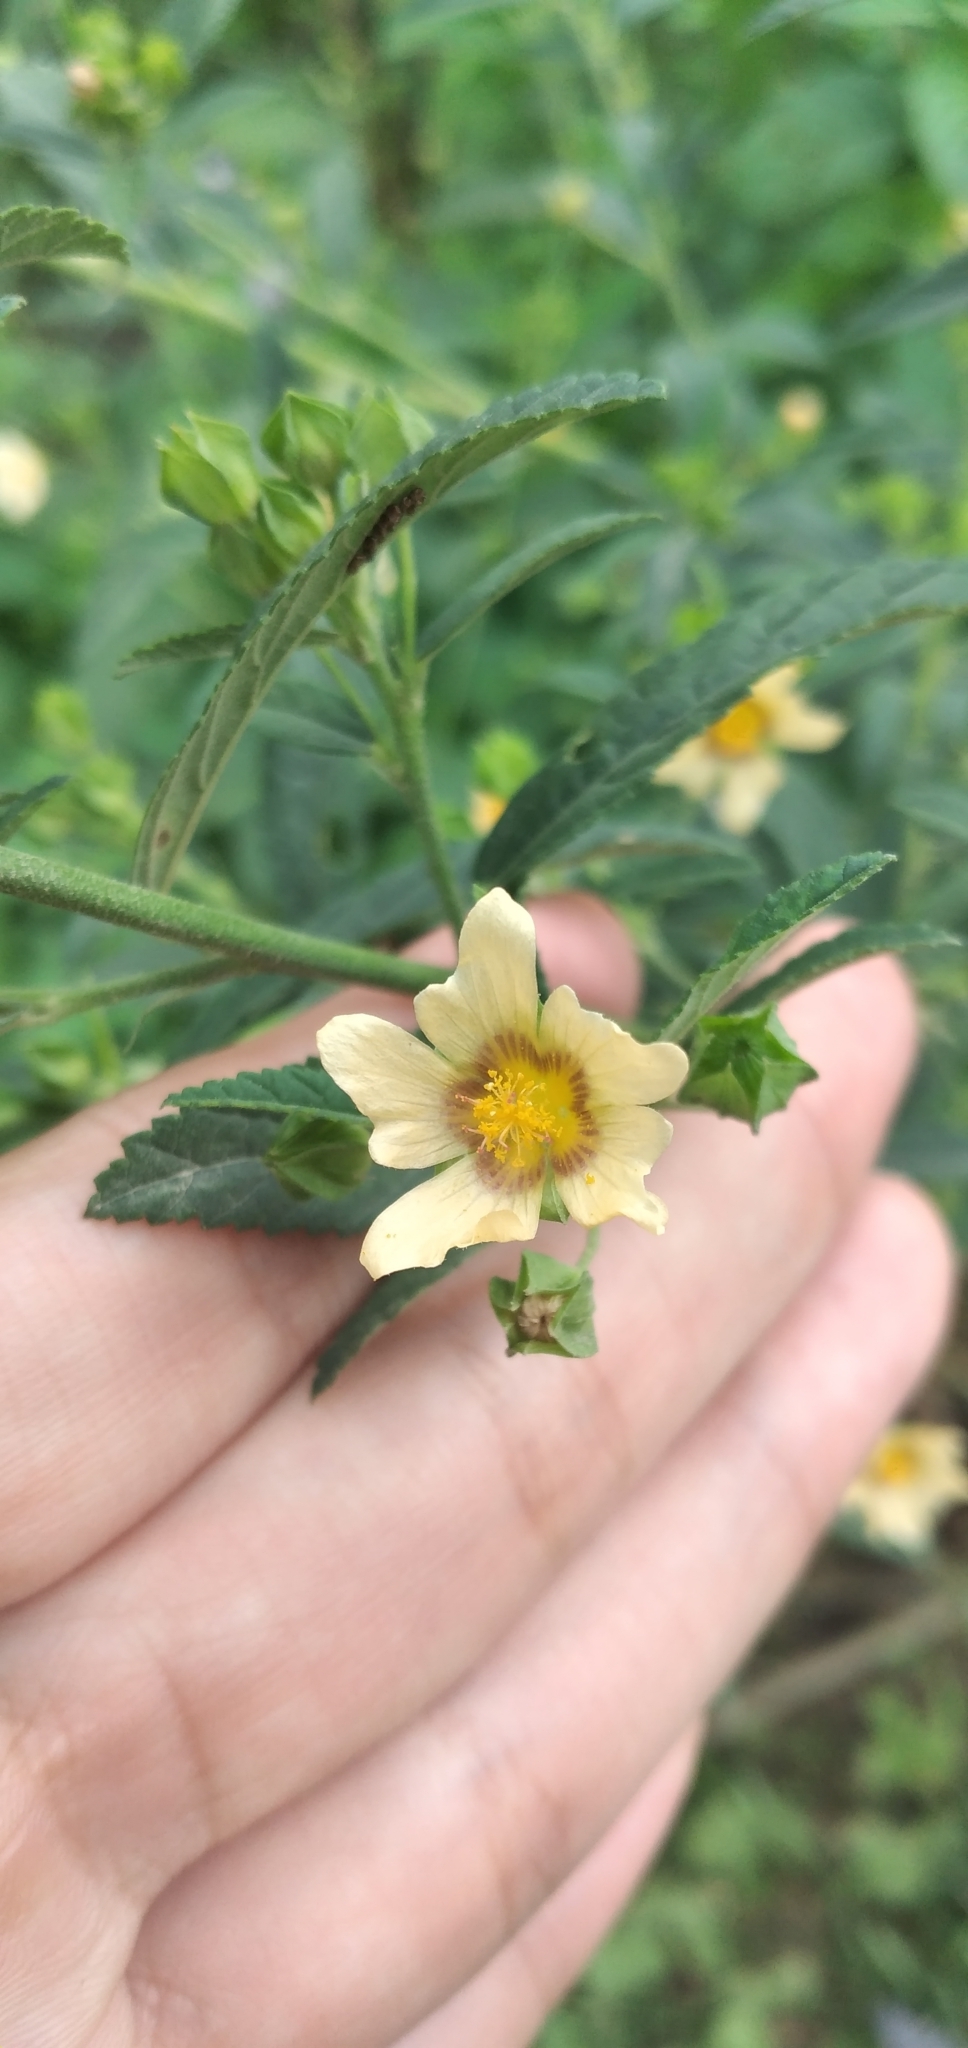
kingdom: Plantae
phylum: Tracheophyta
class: Magnoliopsida
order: Malvales
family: Malvaceae
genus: Sida
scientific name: Sida rhombifolia
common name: Queensland-hemp
